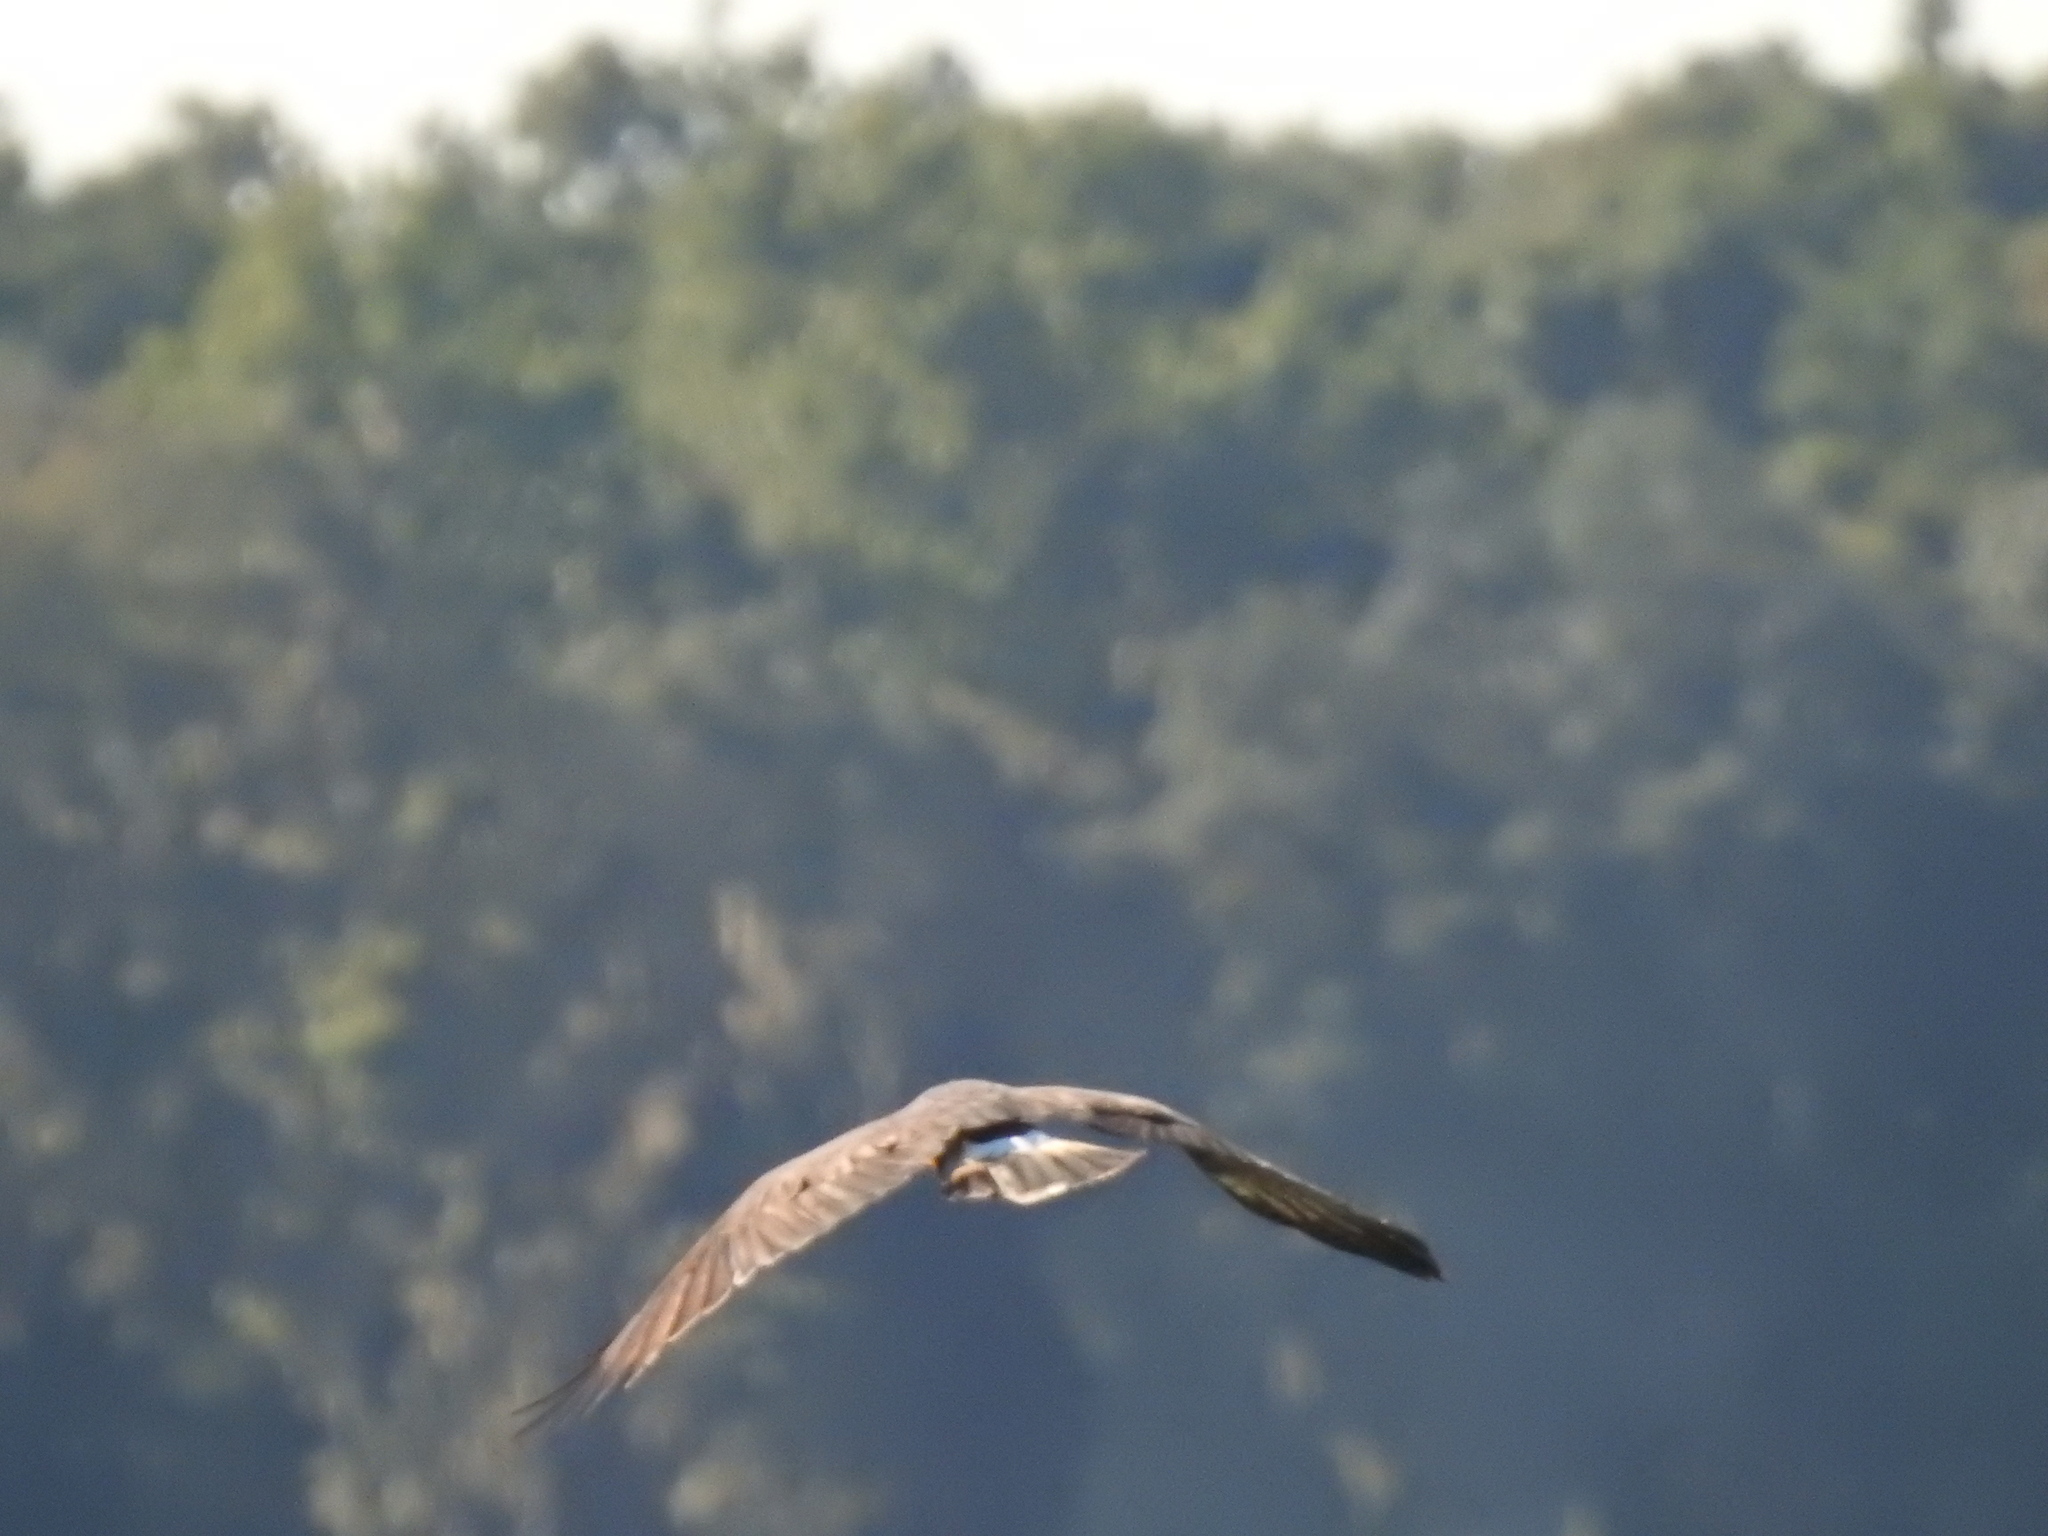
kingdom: Animalia
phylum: Chordata
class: Aves
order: Accipitriformes
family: Accipitridae
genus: Rostrhamus
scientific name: Rostrhamus sociabilis
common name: Snail kite
